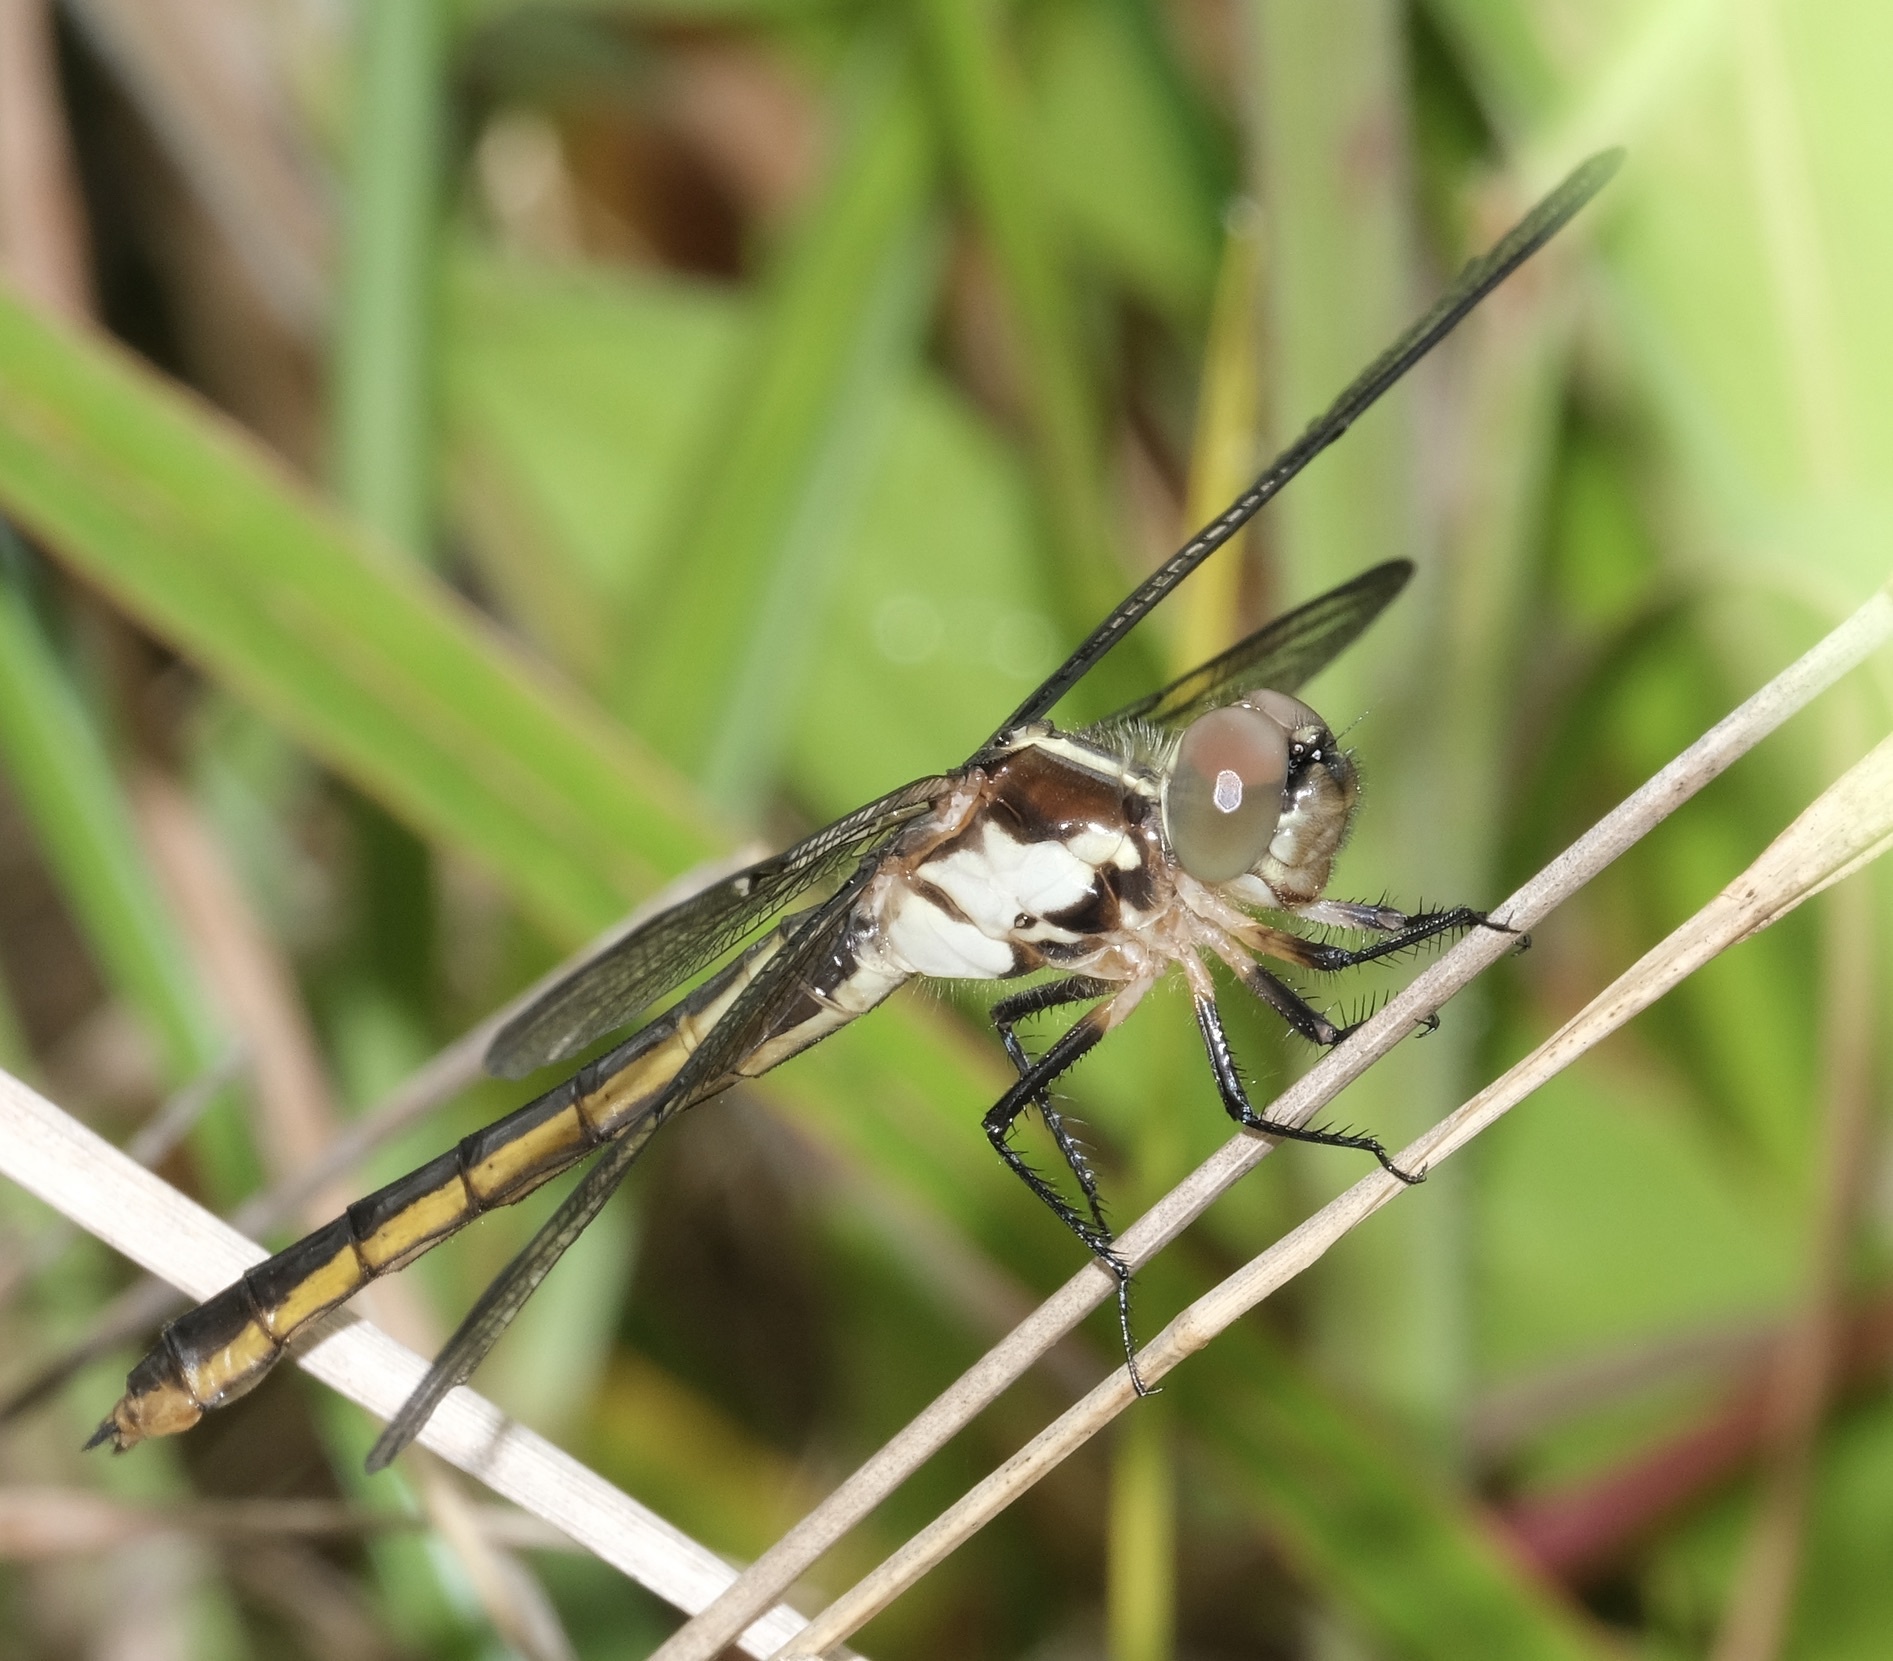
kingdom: Animalia
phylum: Arthropoda
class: Insecta
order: Odonata
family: Libellulidae
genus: Libellula
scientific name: Libellula incesta
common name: Slaty skimmer
